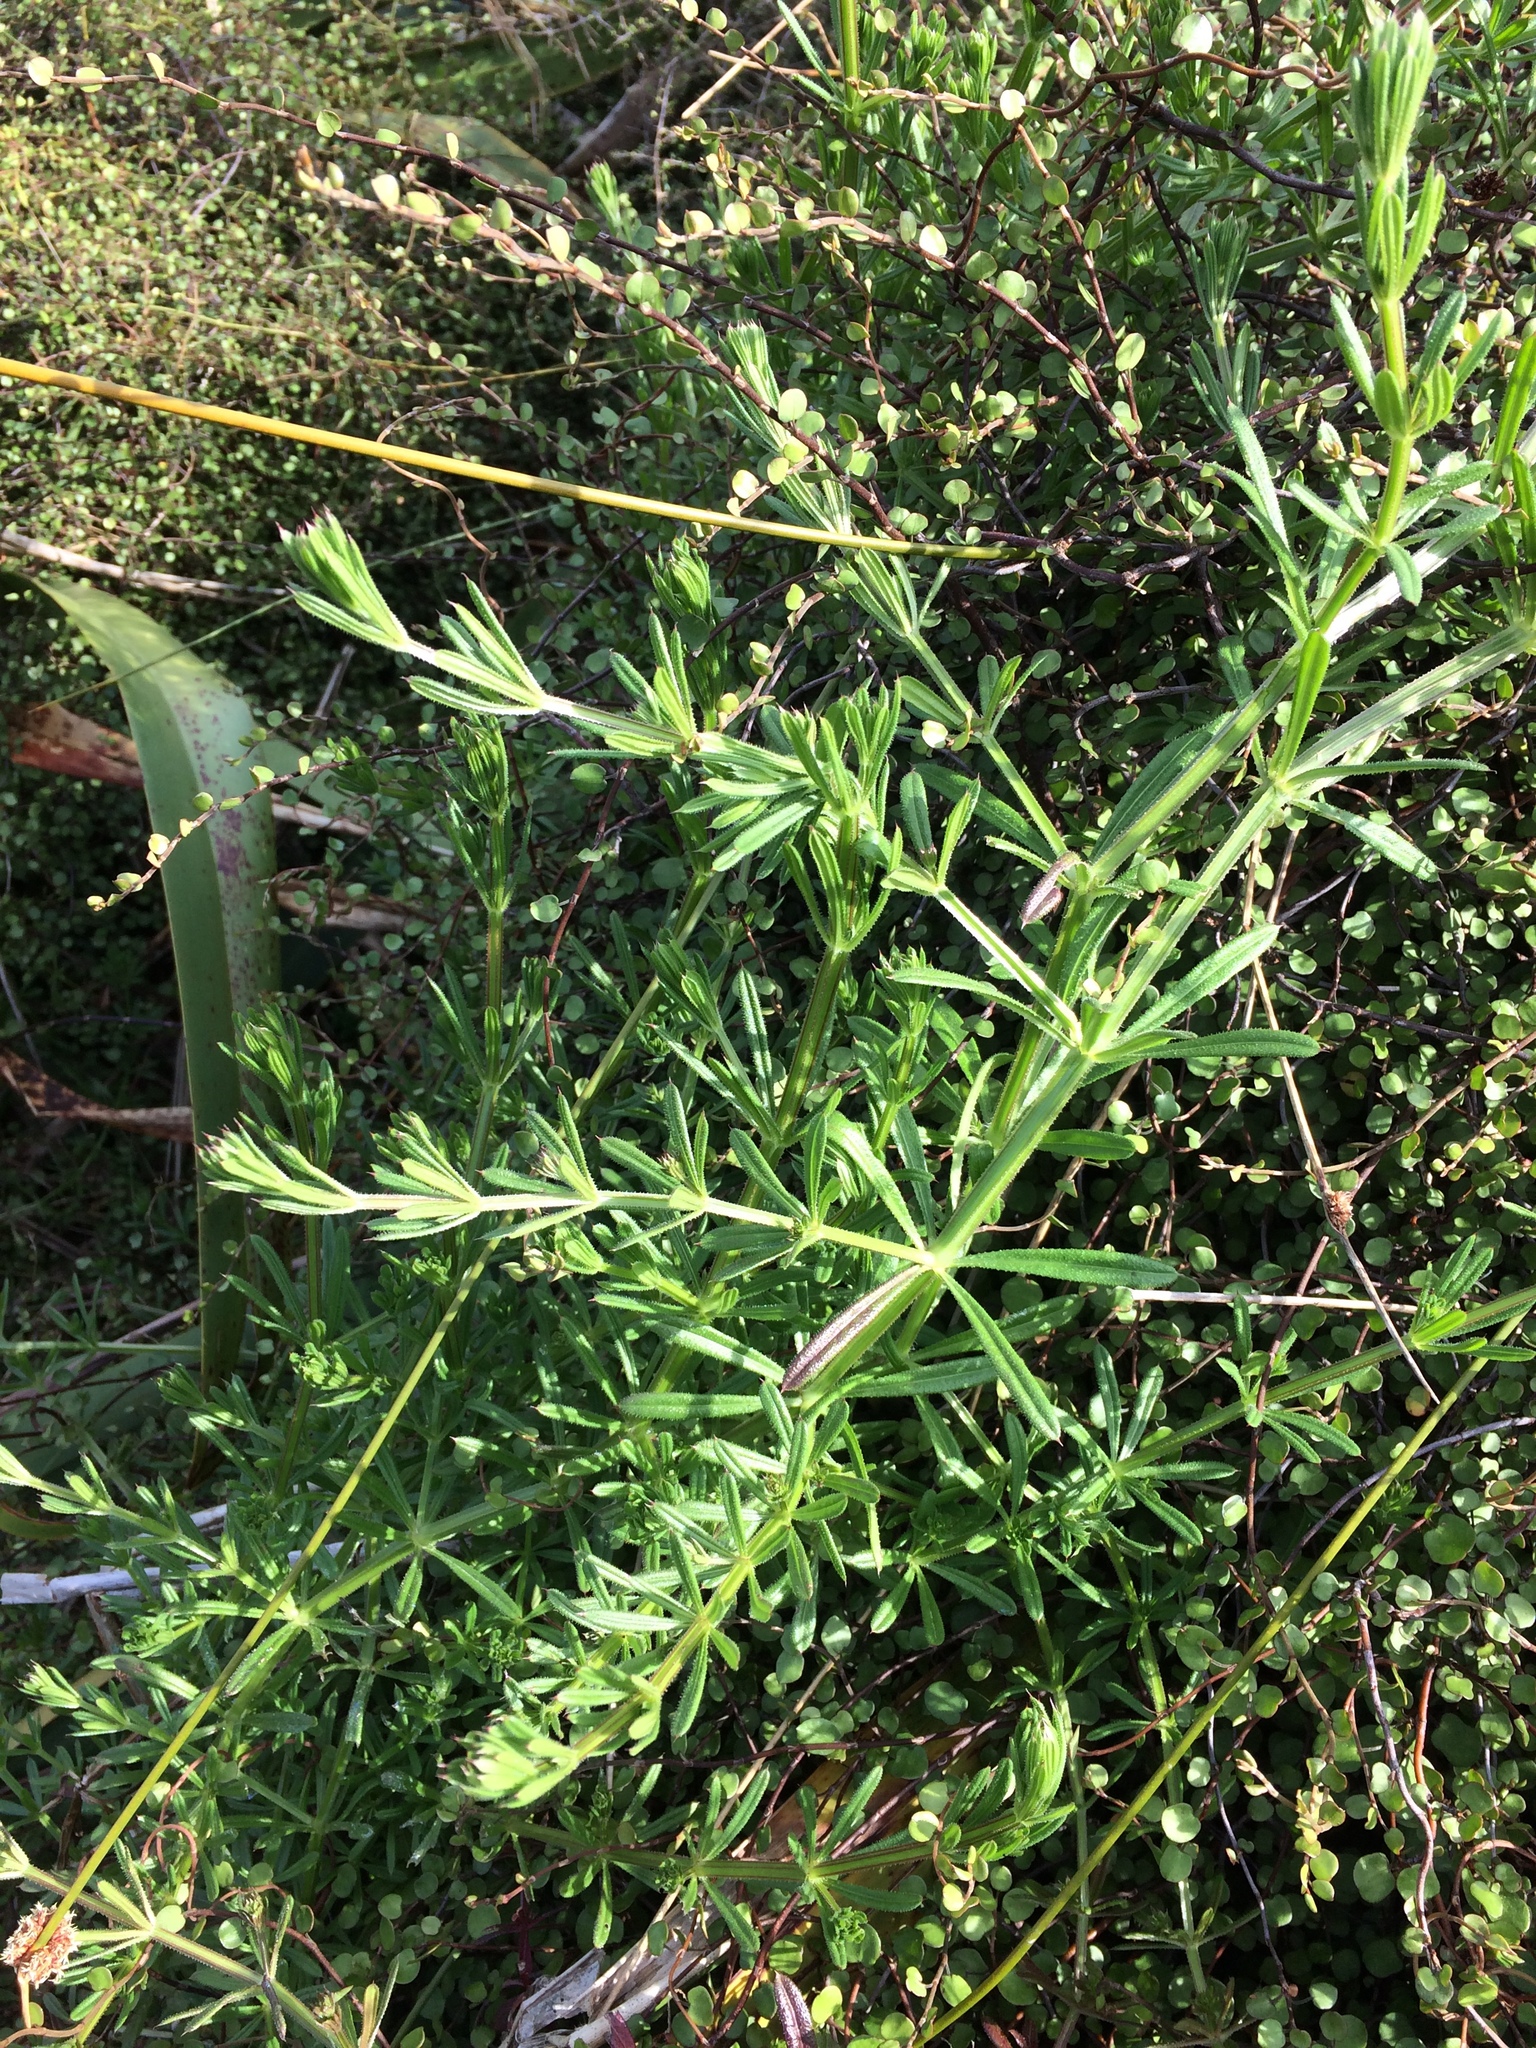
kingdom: Plantae
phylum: Tracheophyta
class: Magnoliopsida
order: Gentianales
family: Rubiaceae
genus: Galium
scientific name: Galium aparine
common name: Cleavers
